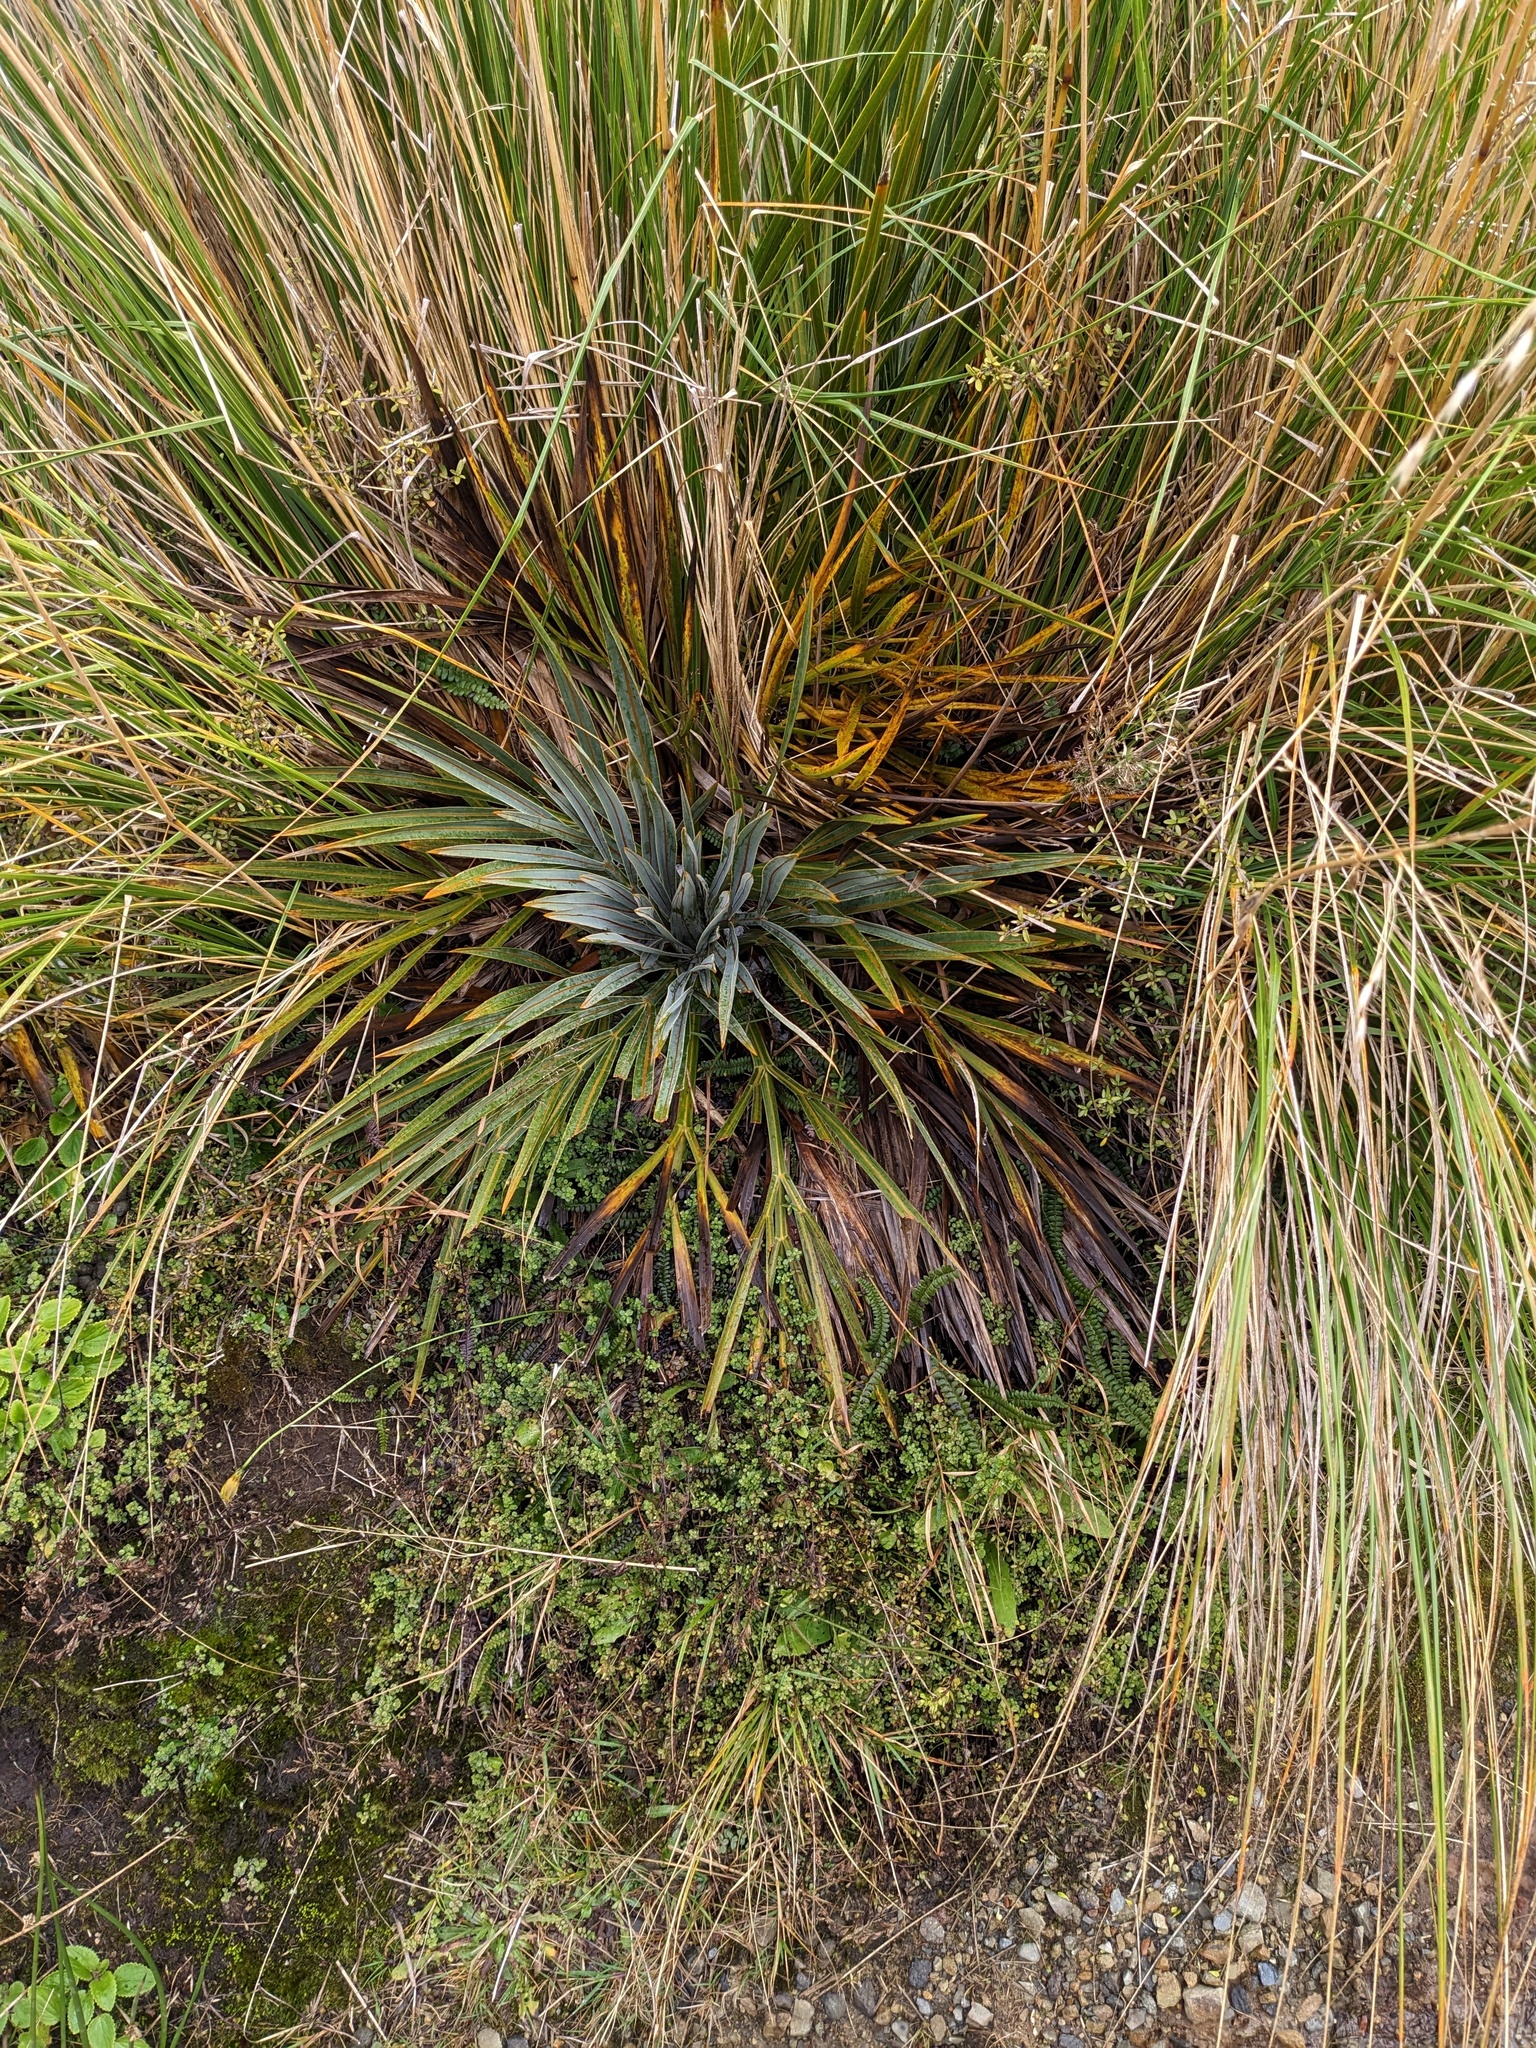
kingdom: Plantae
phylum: Tracheophyta
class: Magnoliopsida
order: Apiales
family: Apiaceae
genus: Aciphylla
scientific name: Aciphylla colensoi
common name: Colenso's spaniard
